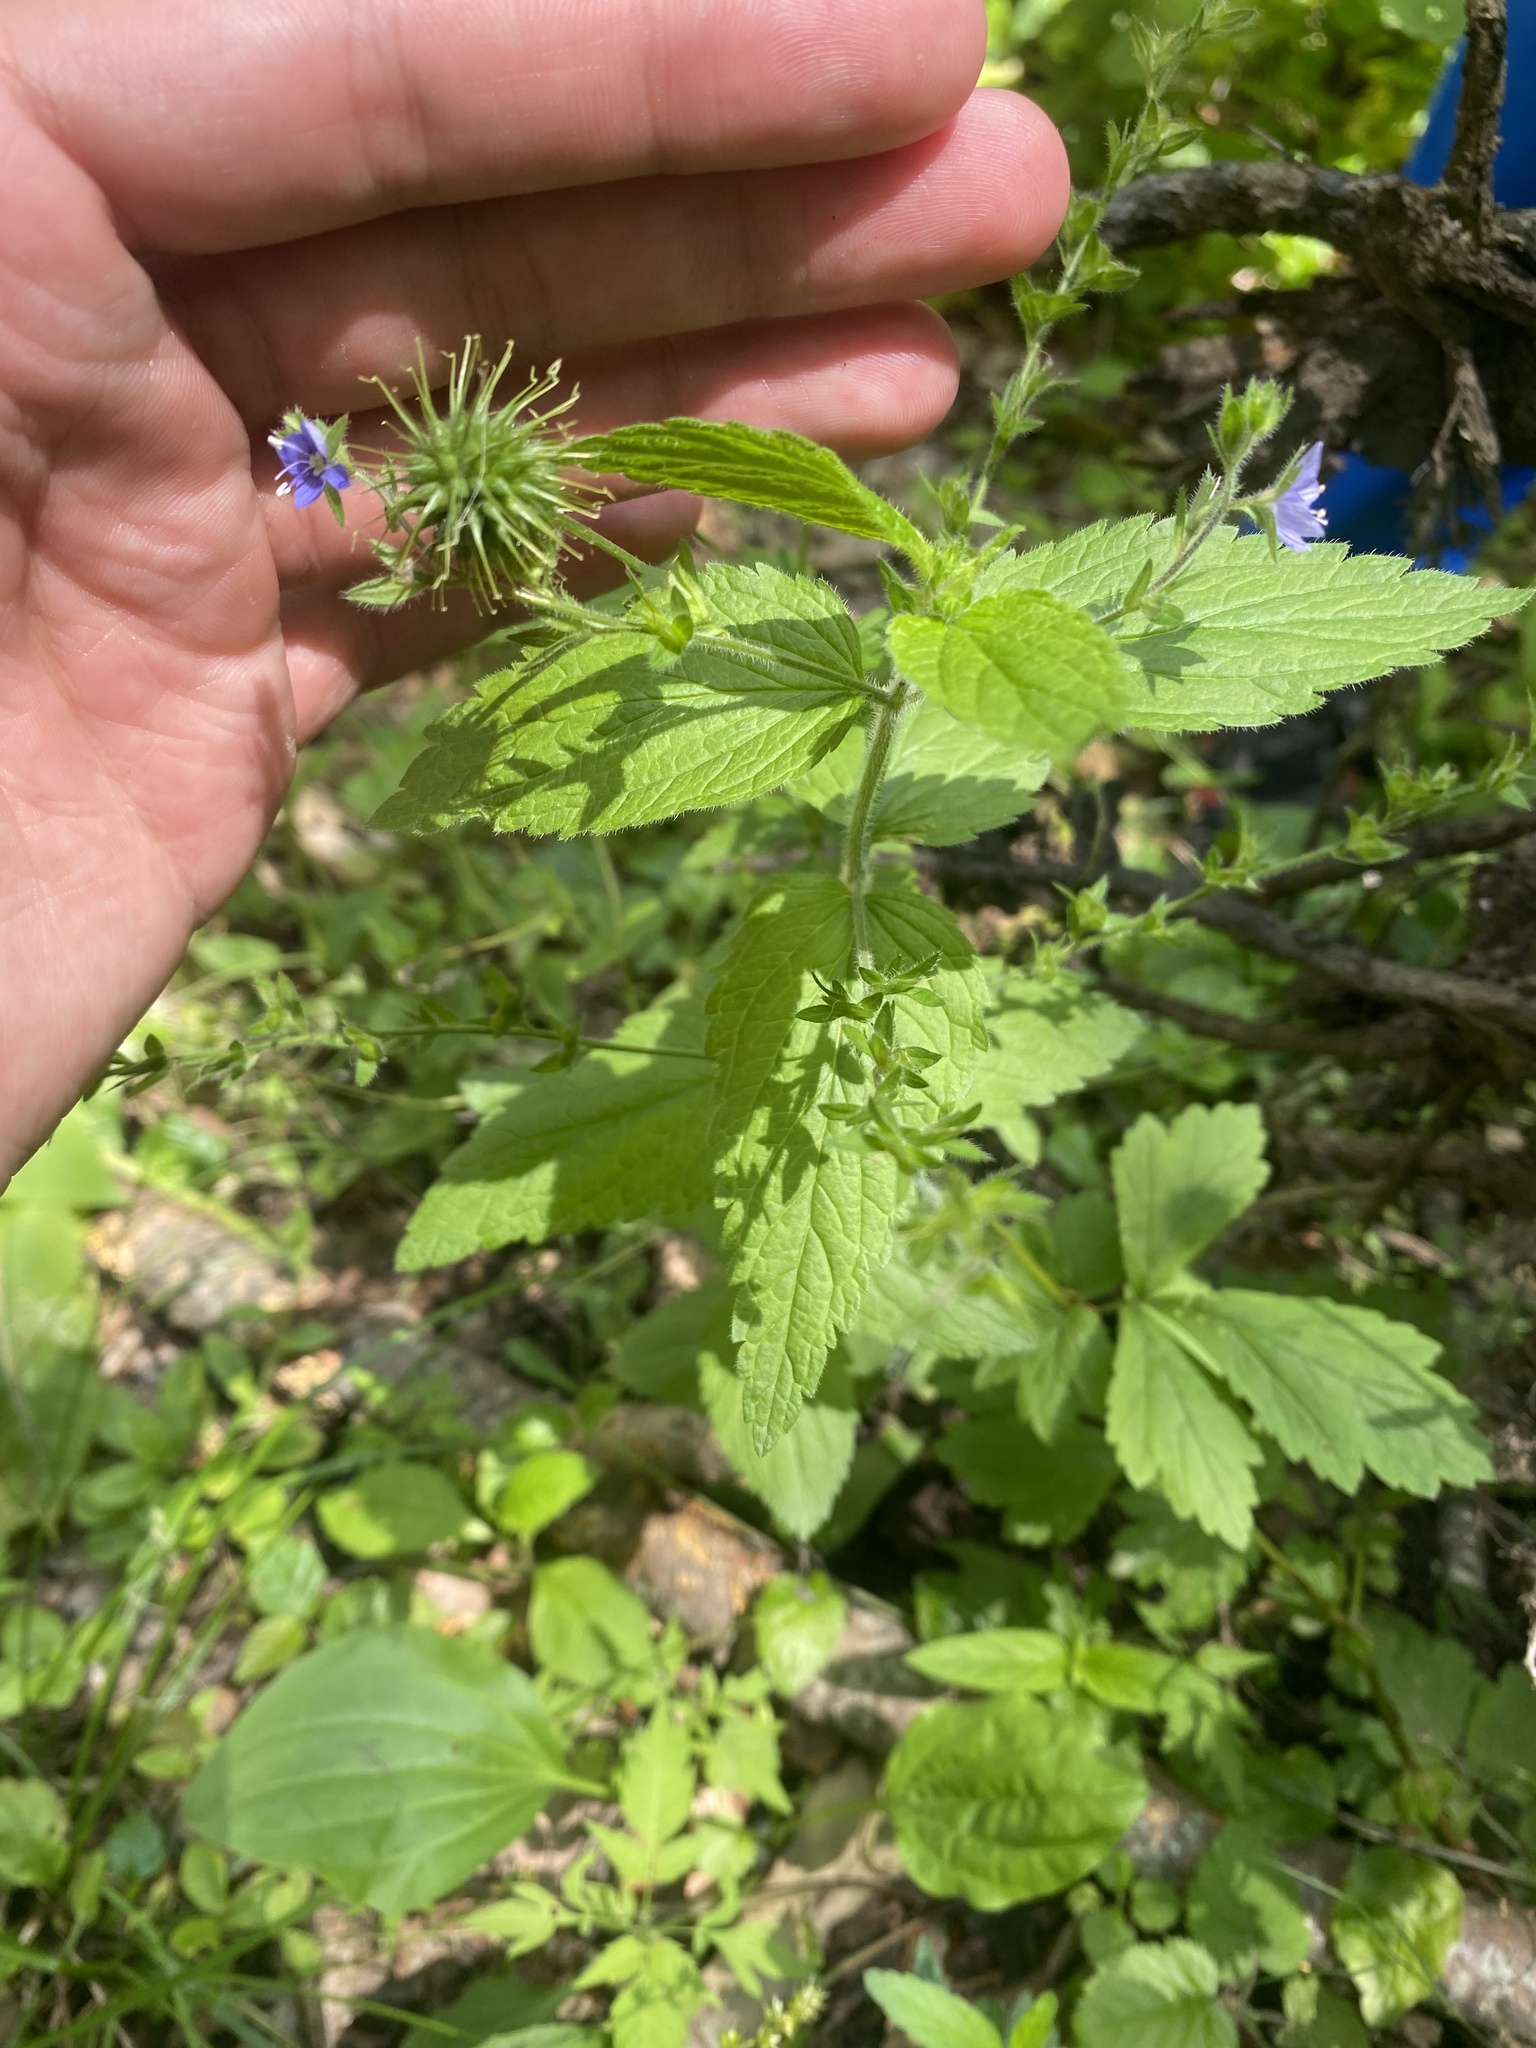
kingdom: Plantae
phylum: Tracheophyta
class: Magnoliopsida
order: Lamiales
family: Plantaginaceae
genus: Veronica
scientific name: Veronica magna
